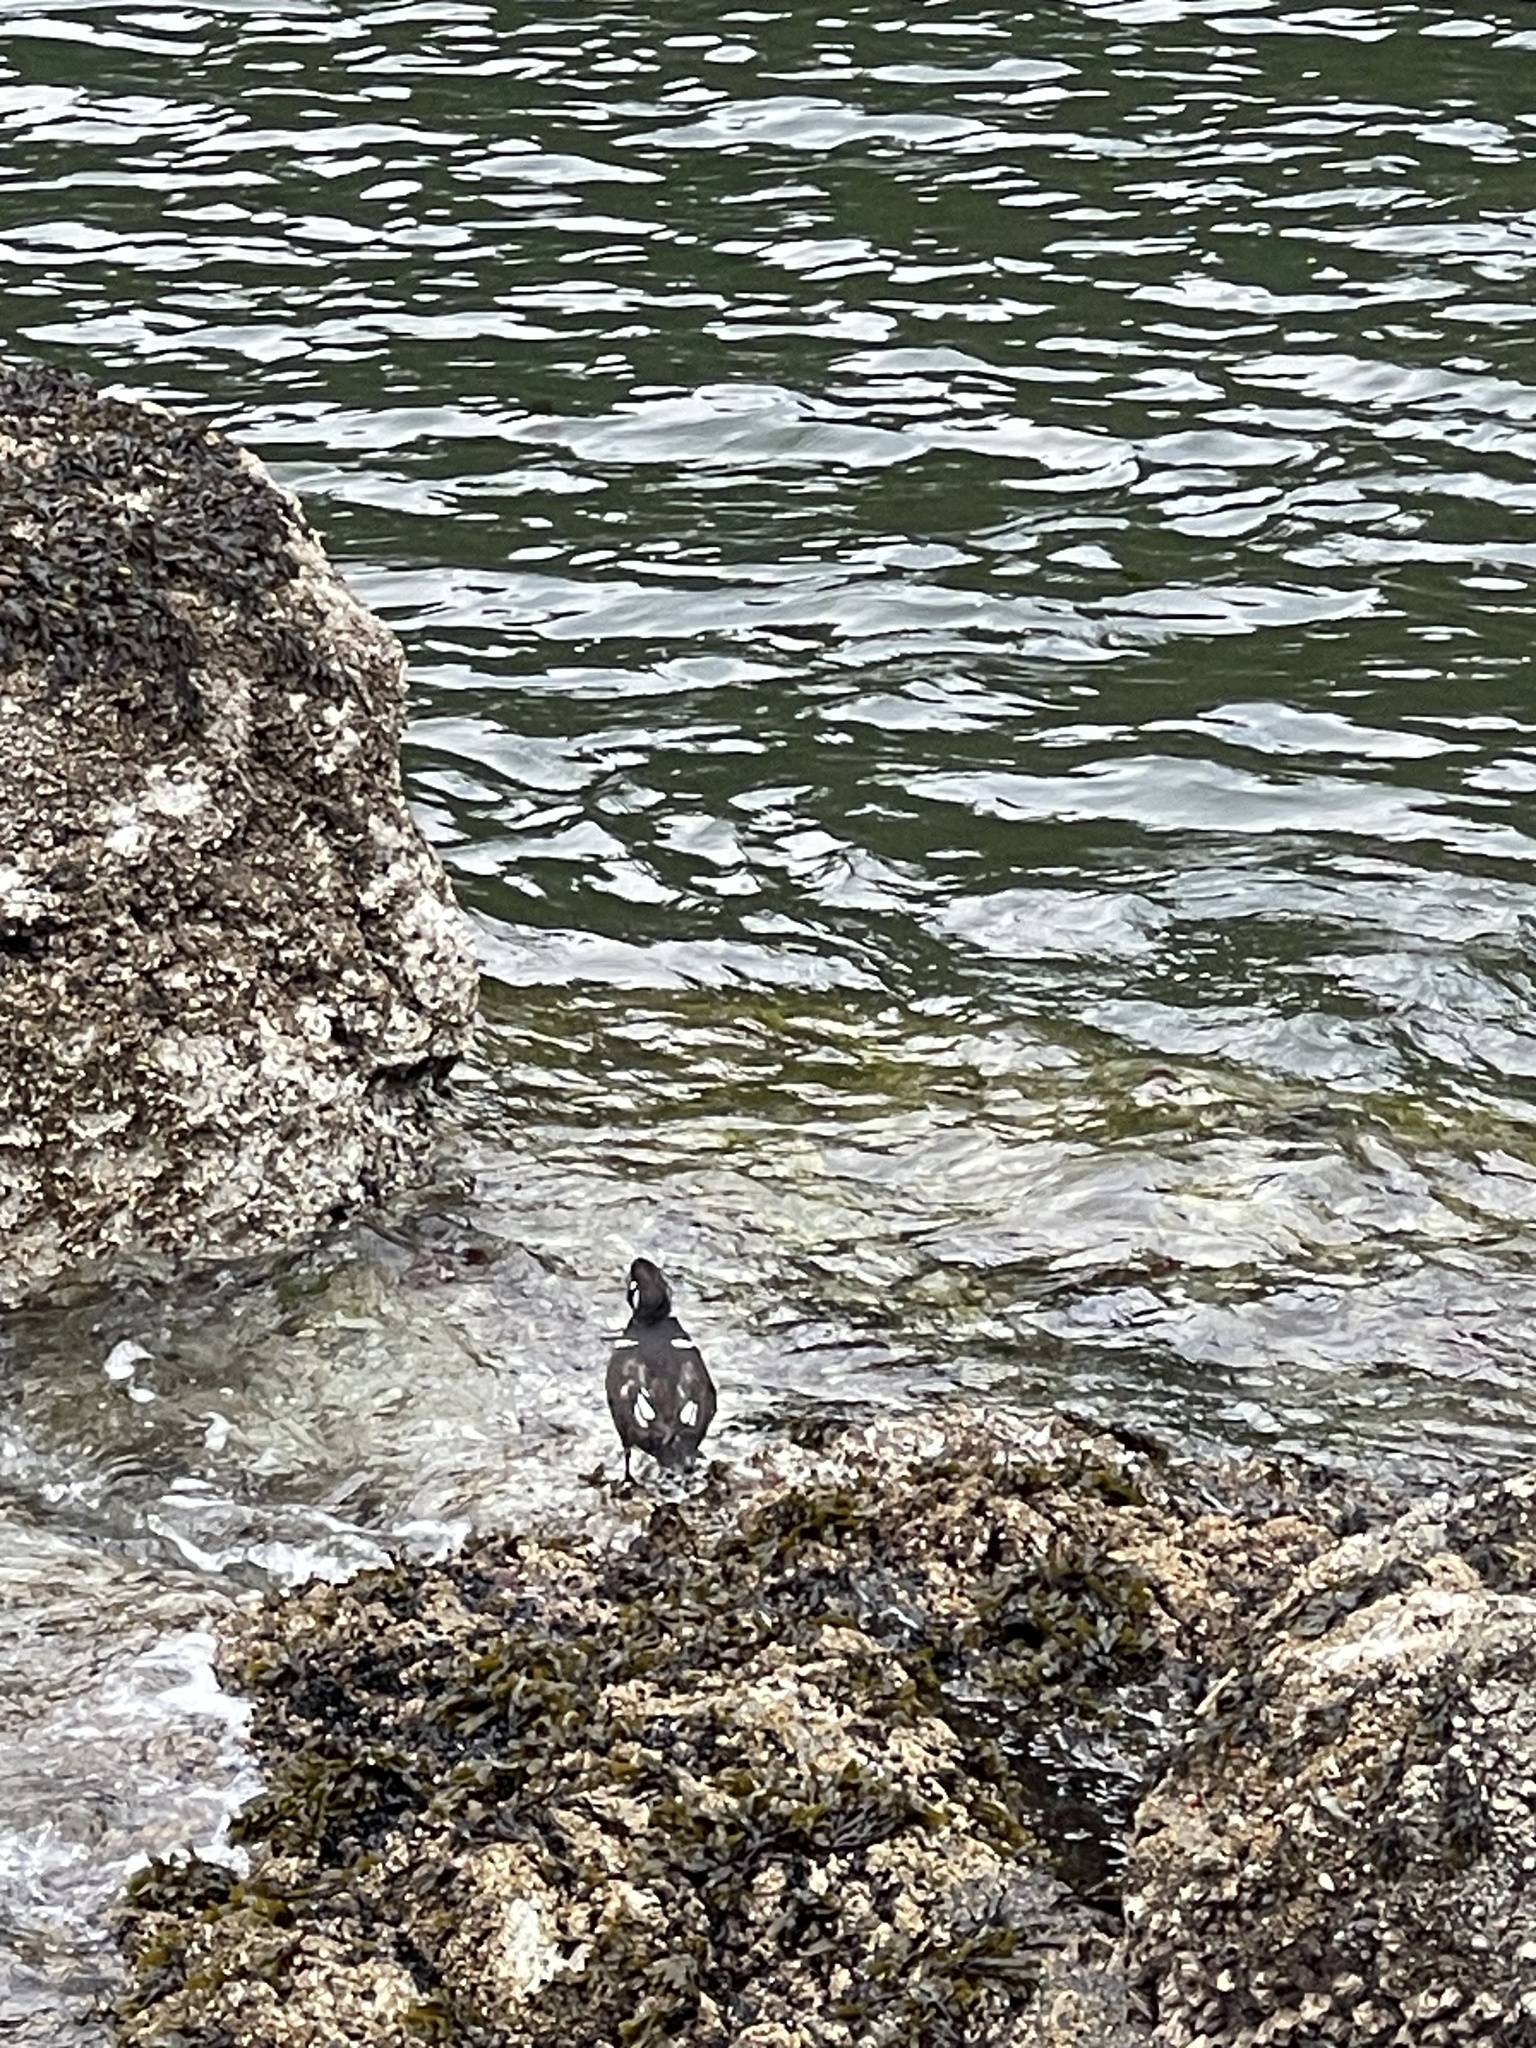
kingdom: Animalia
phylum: Chordata
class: Aves
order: Anseriformes
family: Anatidae
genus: Histrionicus
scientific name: Histrionicus histrionicus
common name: Harlequin duck
